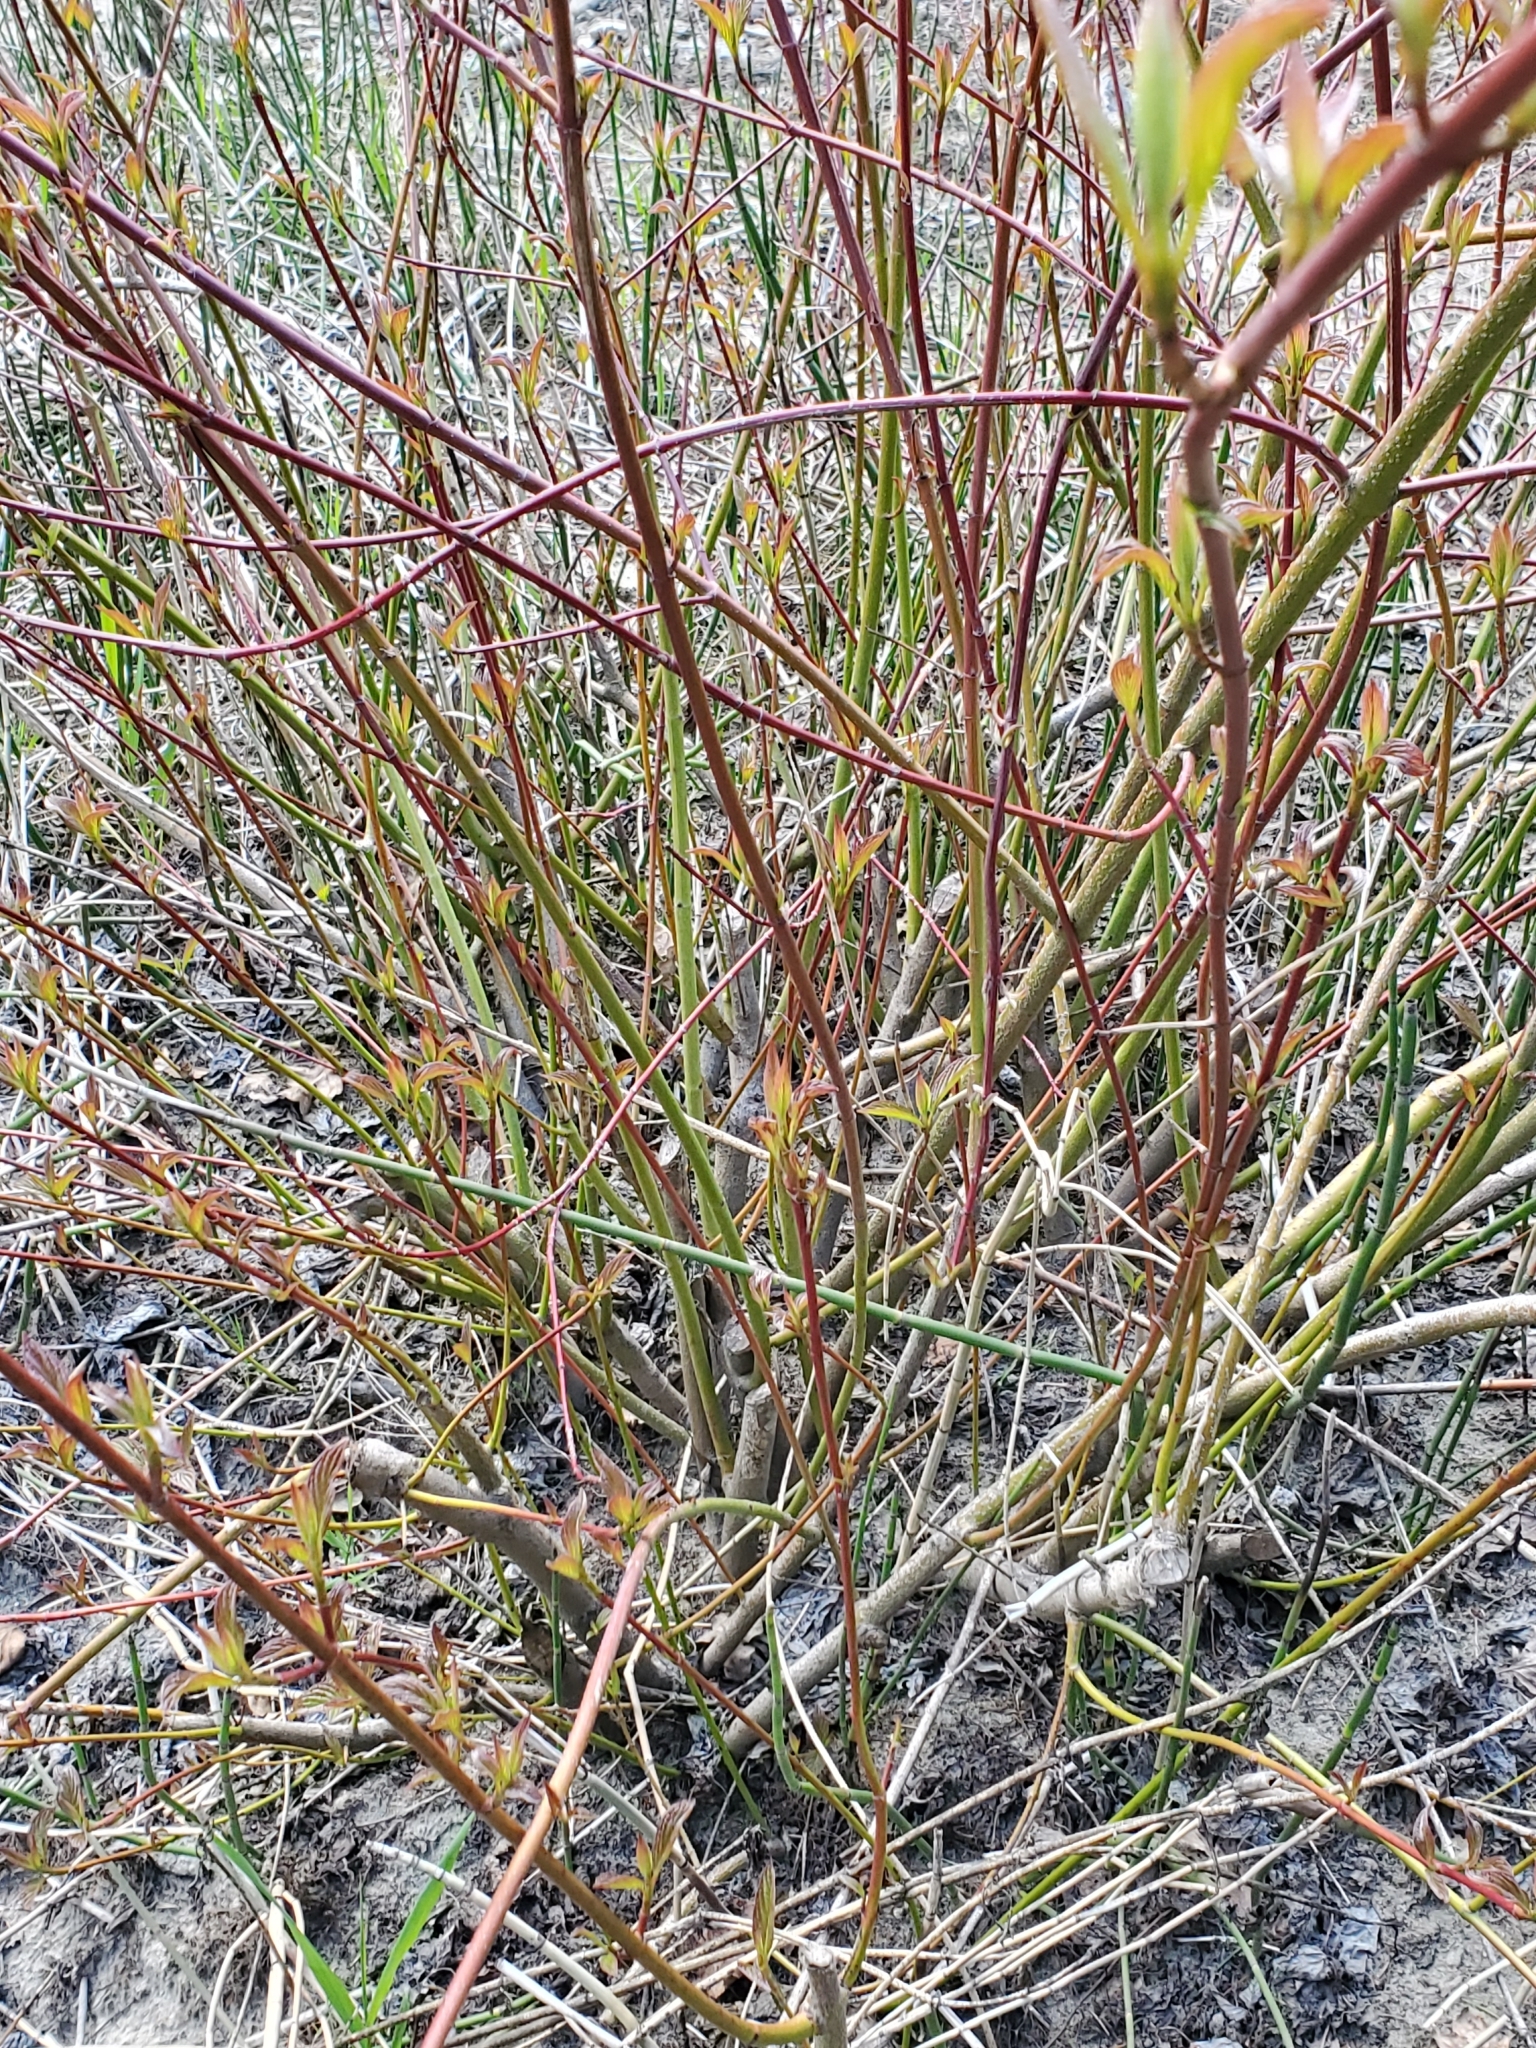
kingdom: Plantae
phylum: Tracheophyta
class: Magnoliopsida
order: Cornales
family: Cornaceae
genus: Cornus
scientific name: Cornus sericea
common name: Red-osier dogwood
